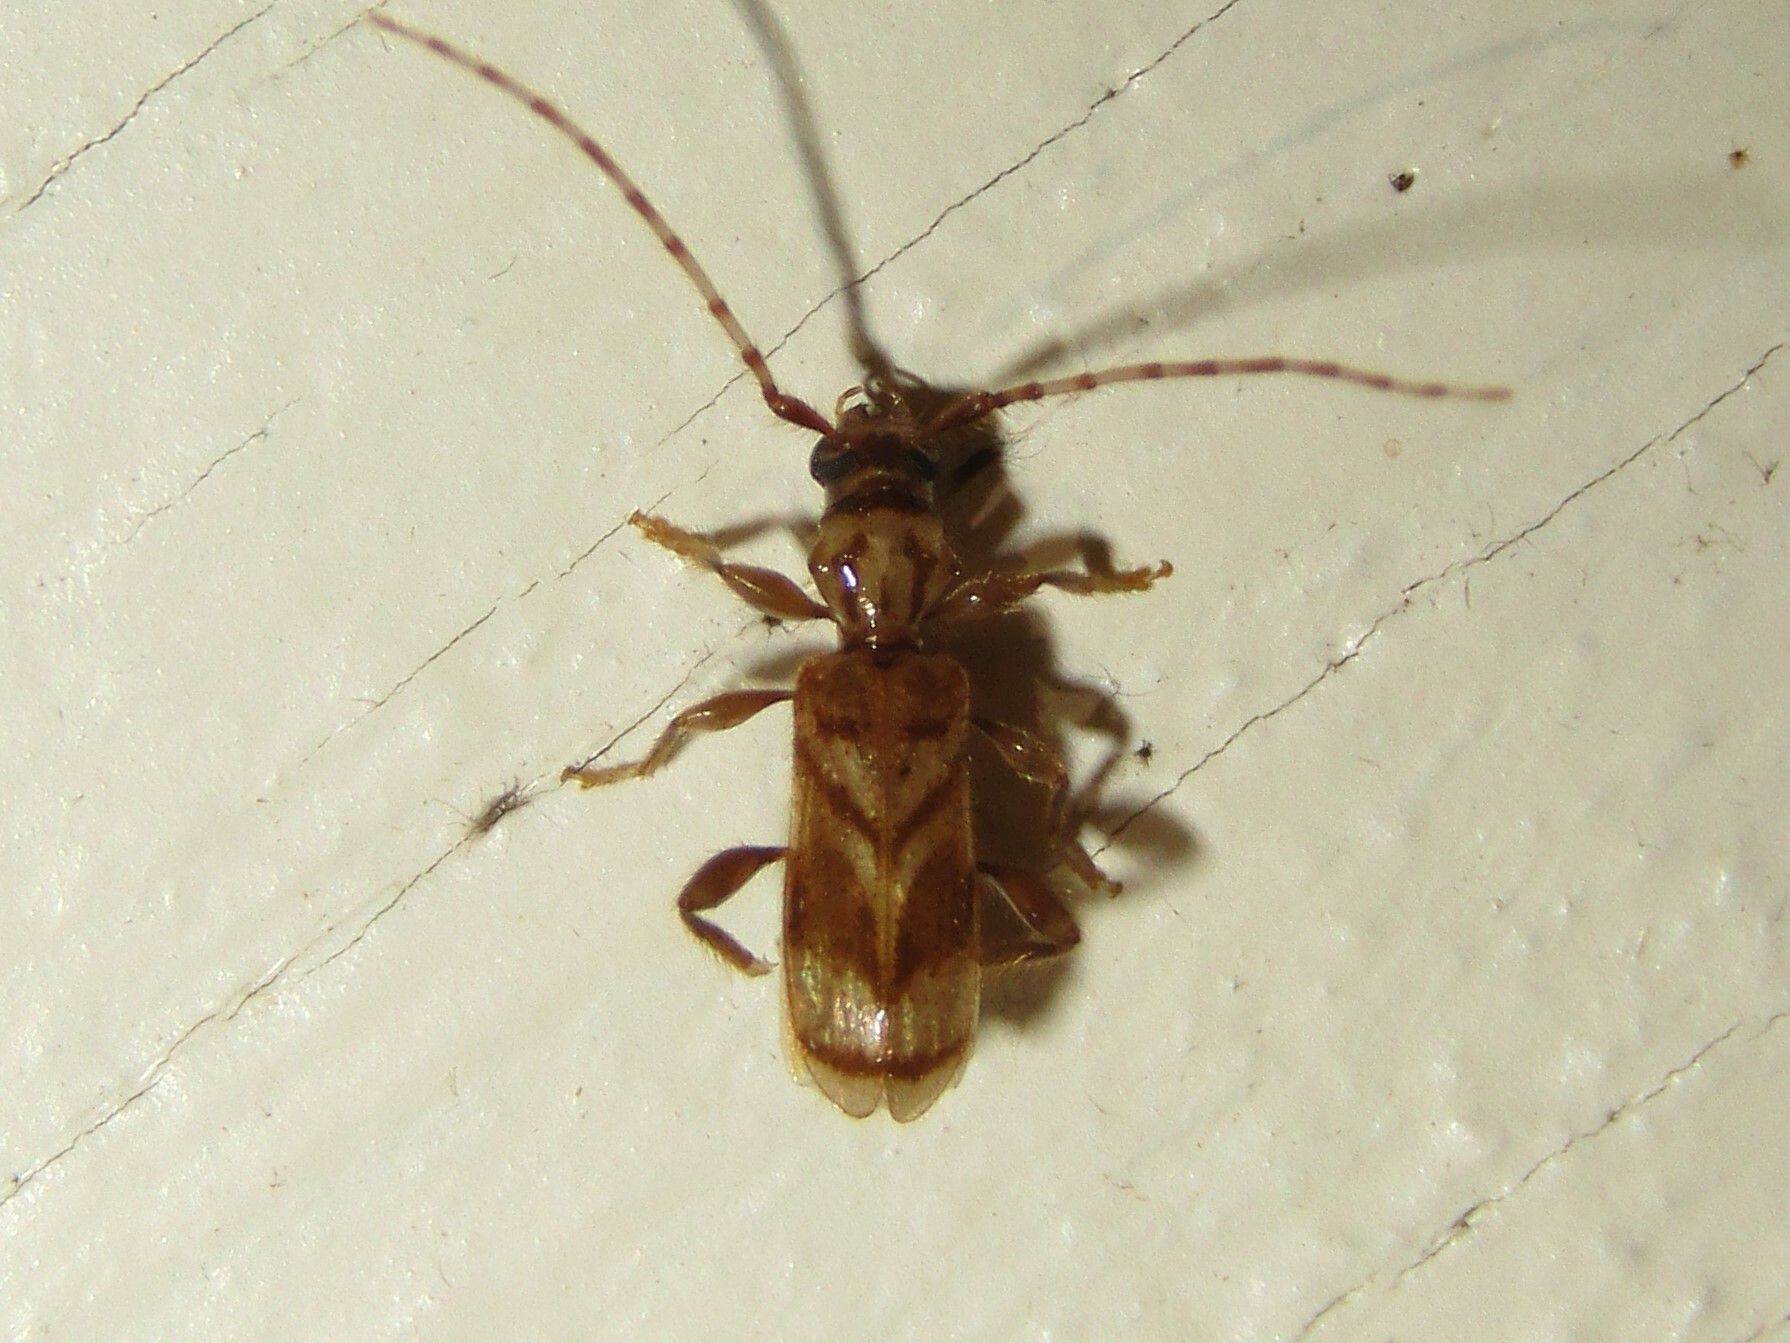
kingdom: Animalia
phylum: Arthropoda
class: Insecta
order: Coleoptera
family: Cerambycidae
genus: Obrium
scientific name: Obrium maculatum
